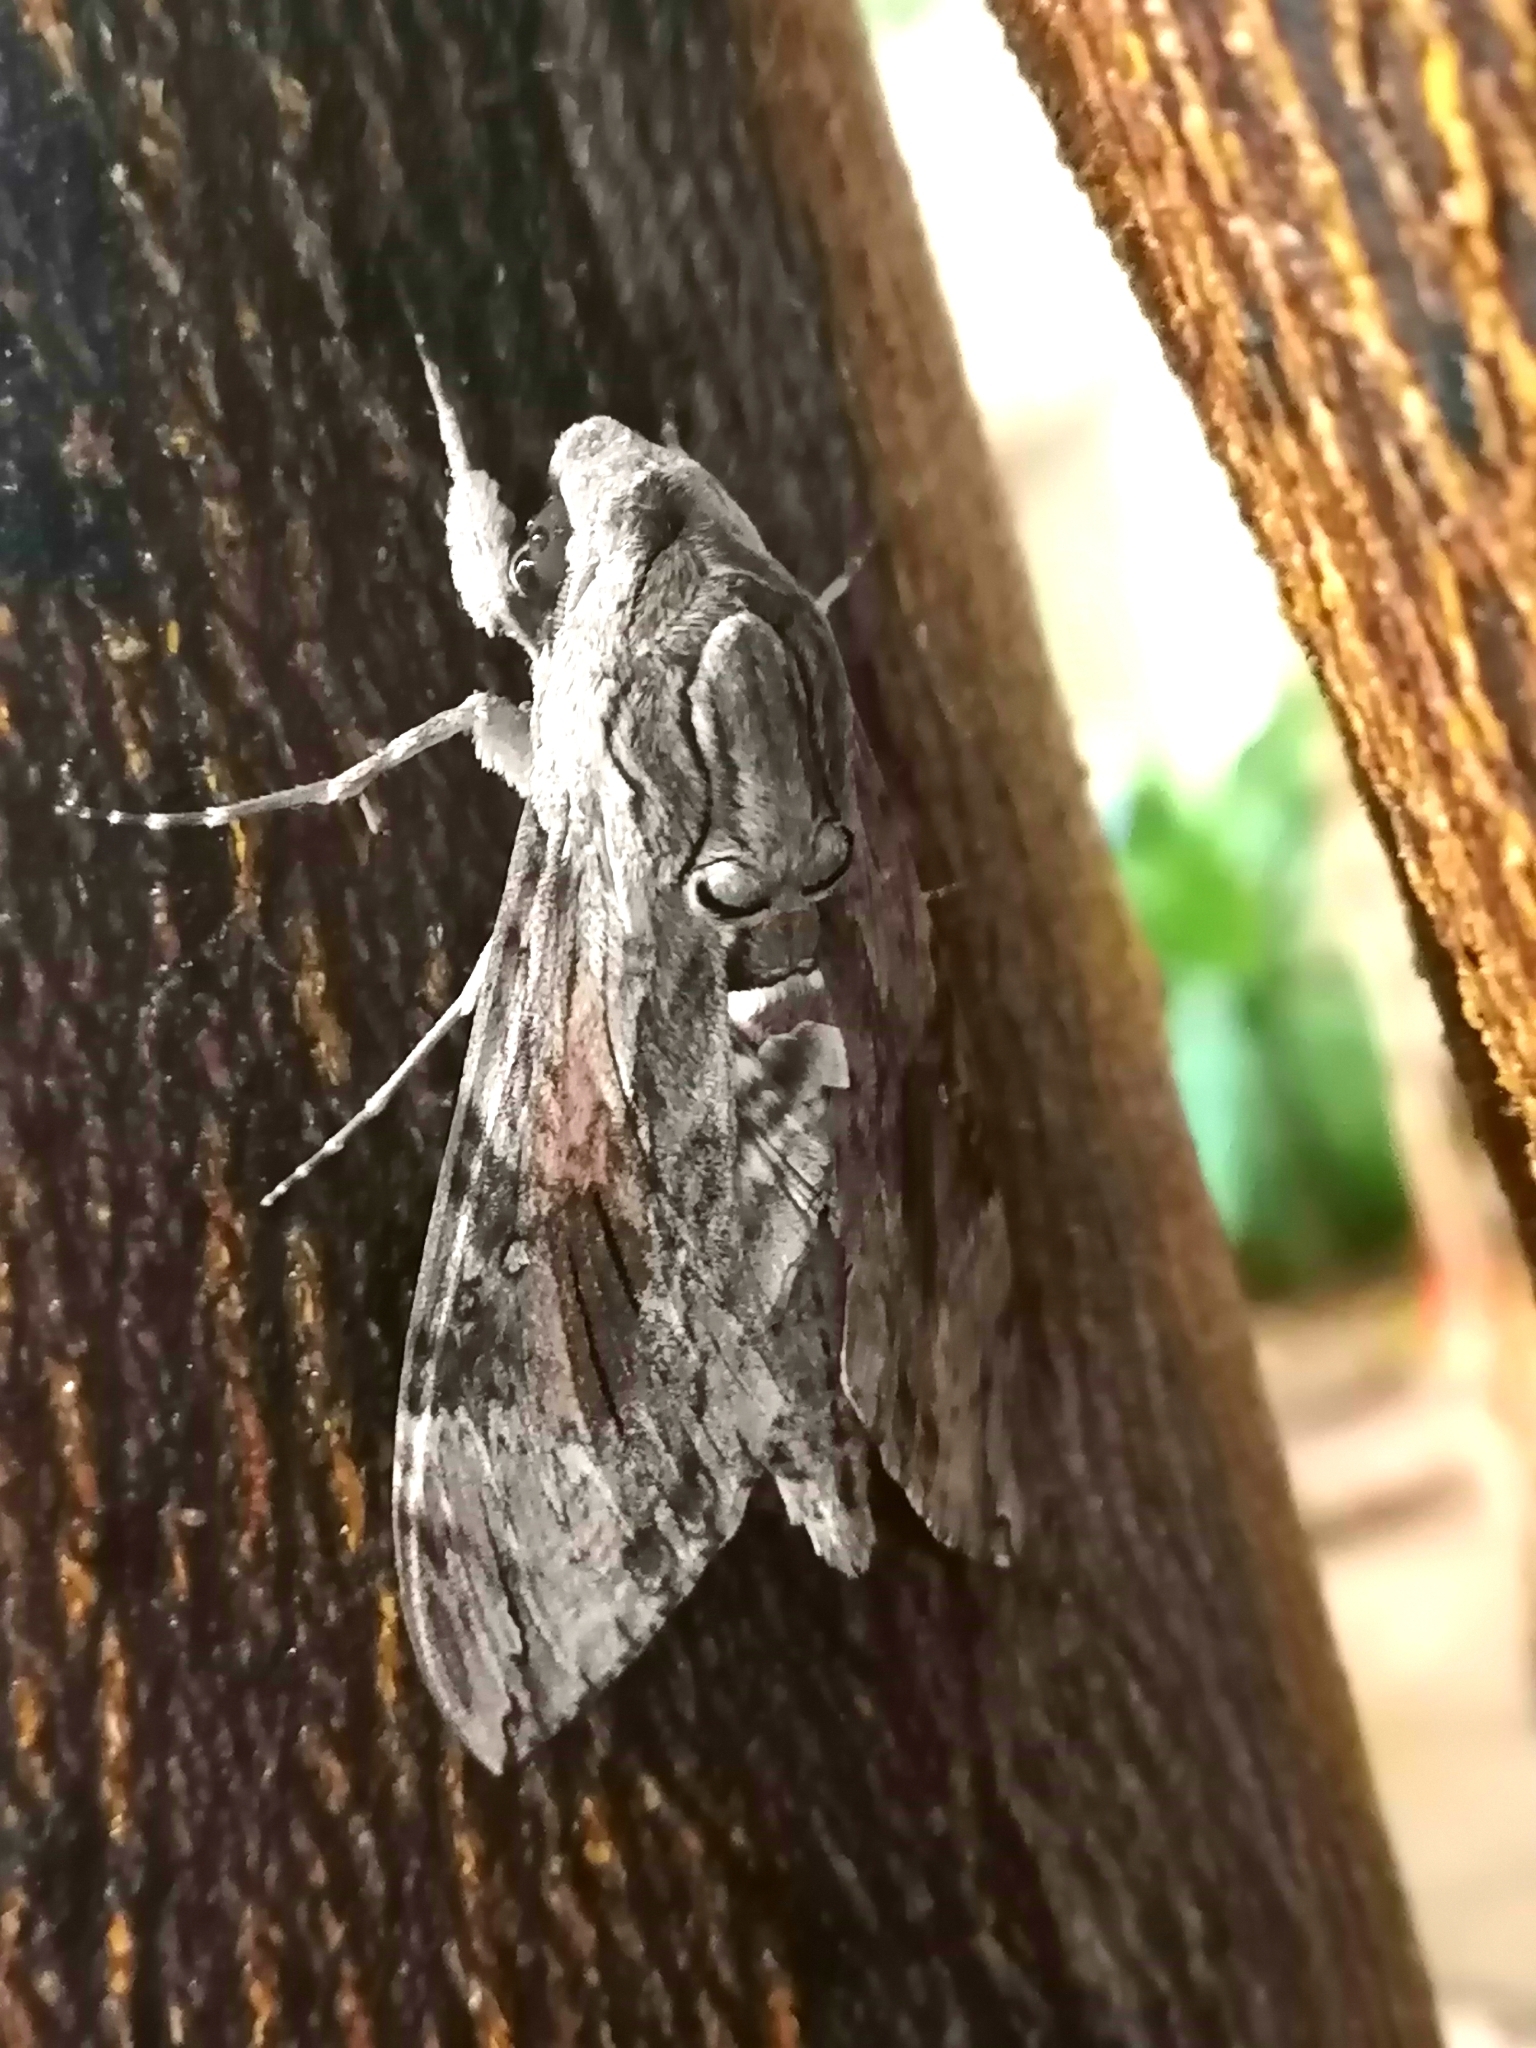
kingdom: Animalia
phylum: Arthropoda
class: Insecta
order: Lepidoptera
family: Sphingidae
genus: Agrius
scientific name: Agrius convolvuli
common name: Convolvulus hawkmoth
